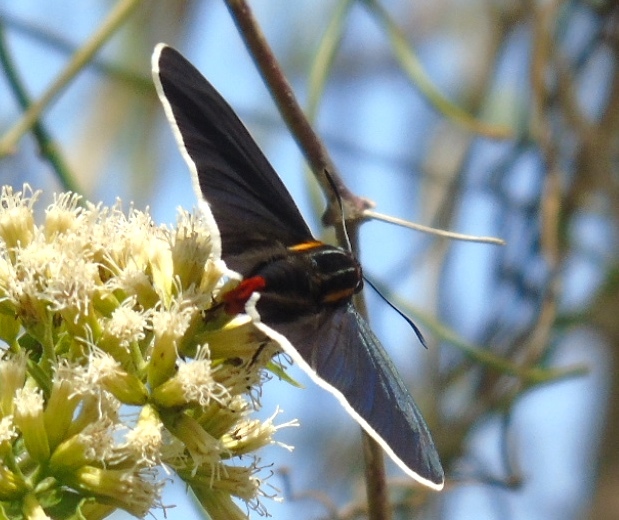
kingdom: Animalia
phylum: Arthropoda
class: Insecta
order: Lepidoptera
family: Hesperiidae
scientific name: Hesperiidae
